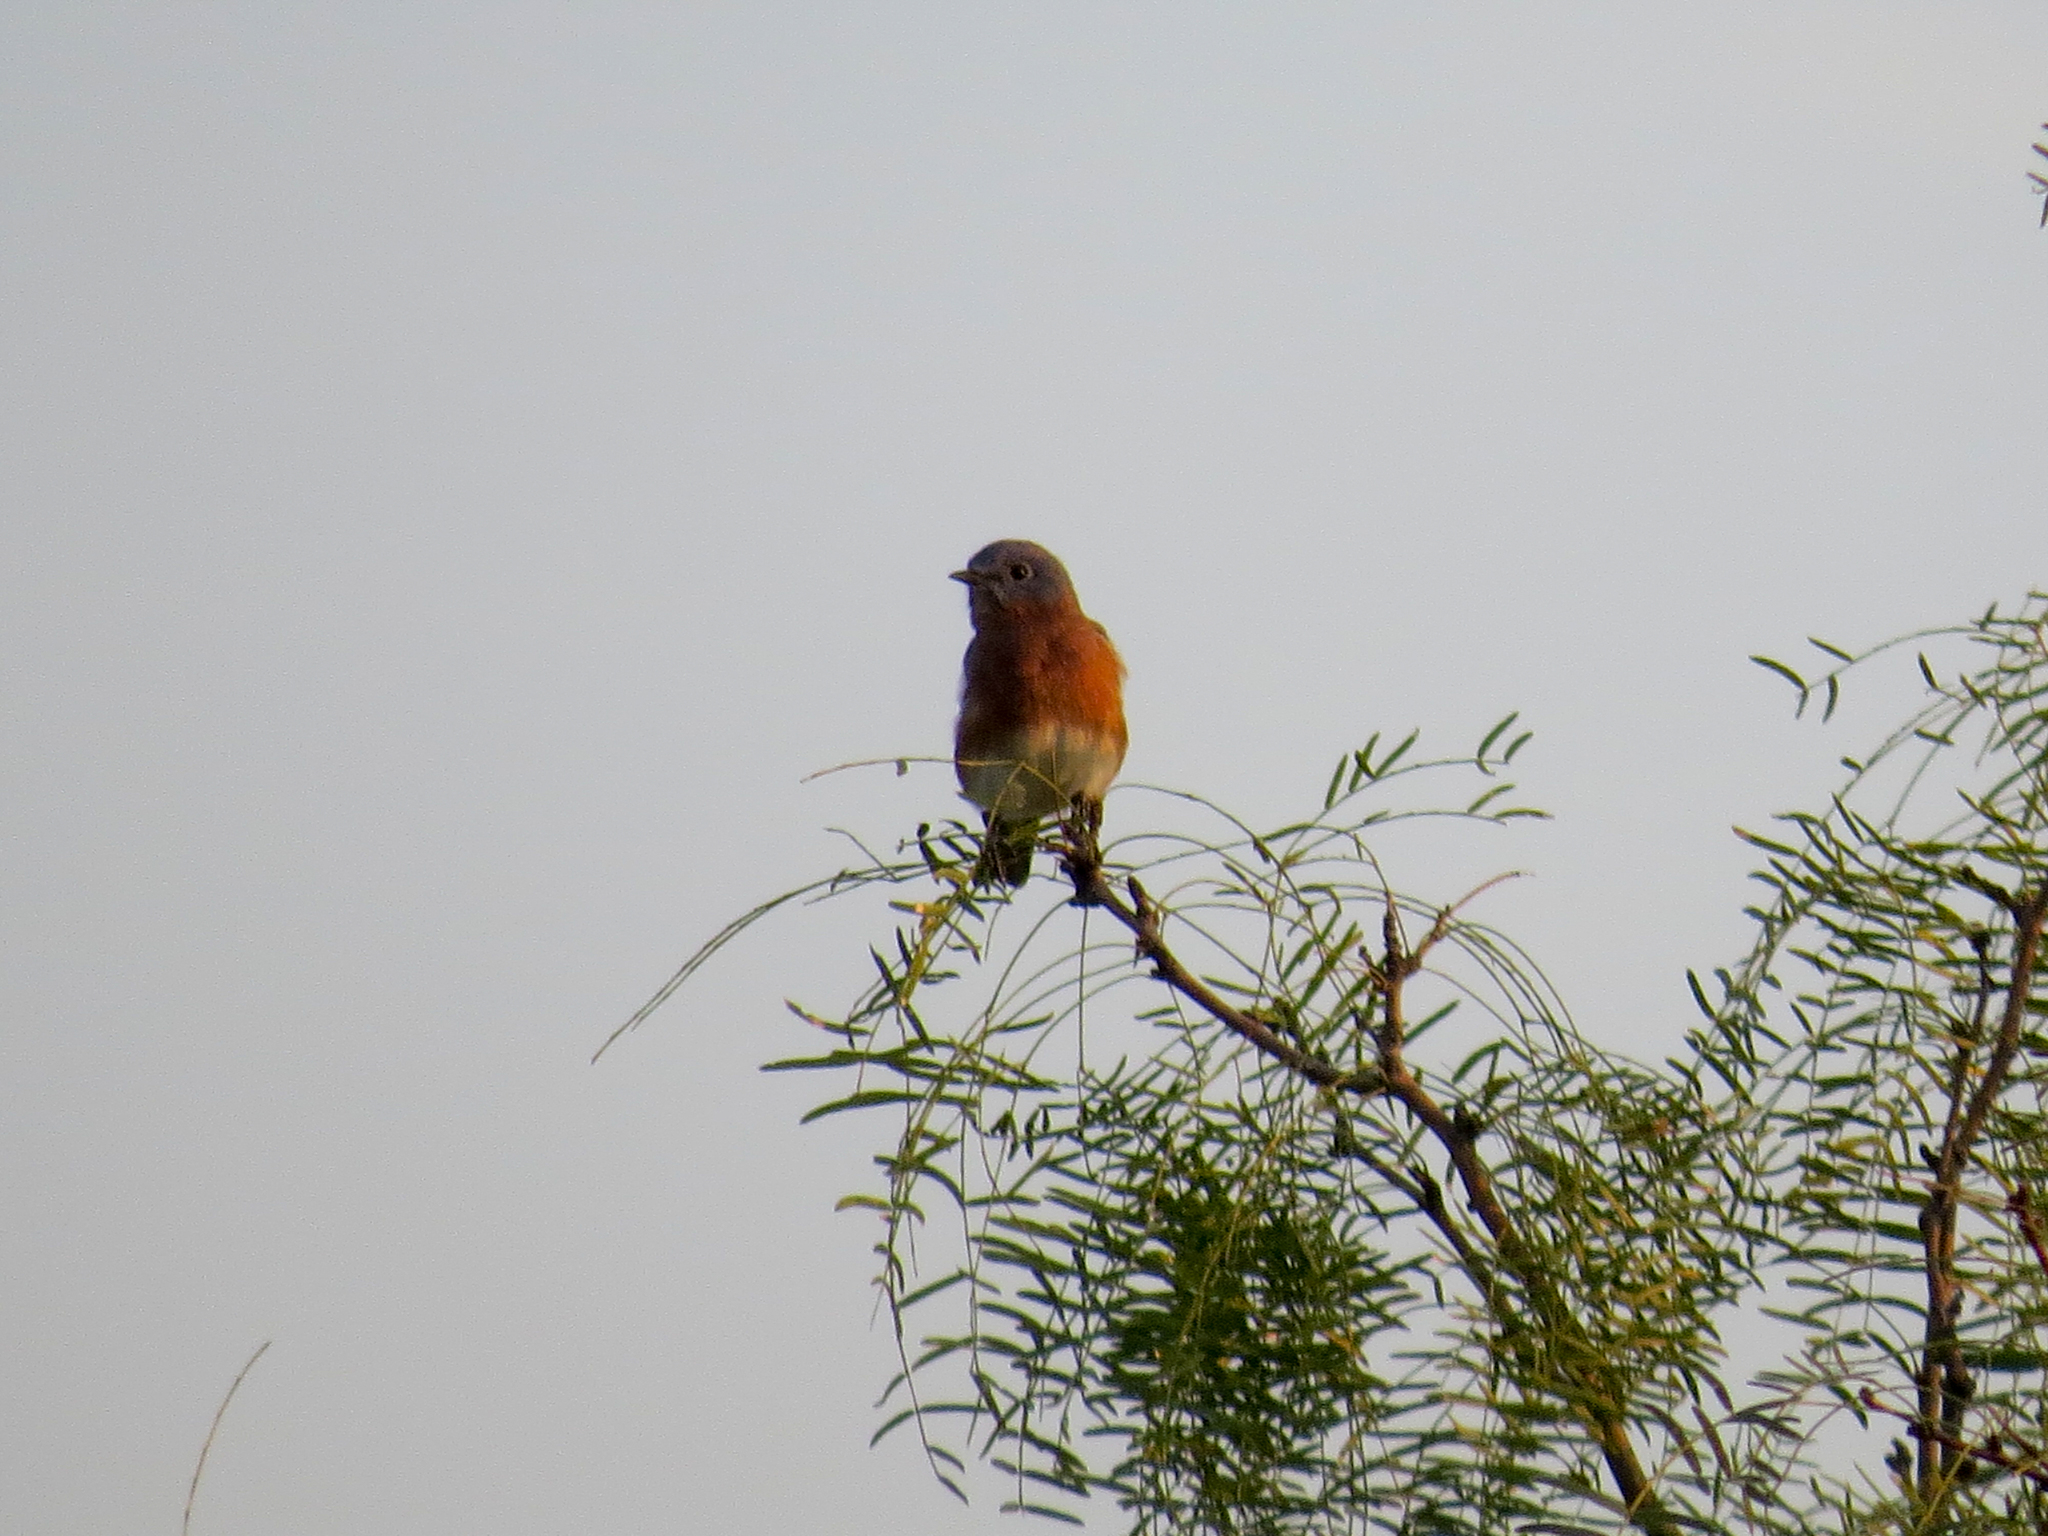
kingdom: Animalia
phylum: Chordata
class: Aves
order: Passeriformes
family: Turdidae
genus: Sialia
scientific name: Sialia sialis
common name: Eastern bluebird
